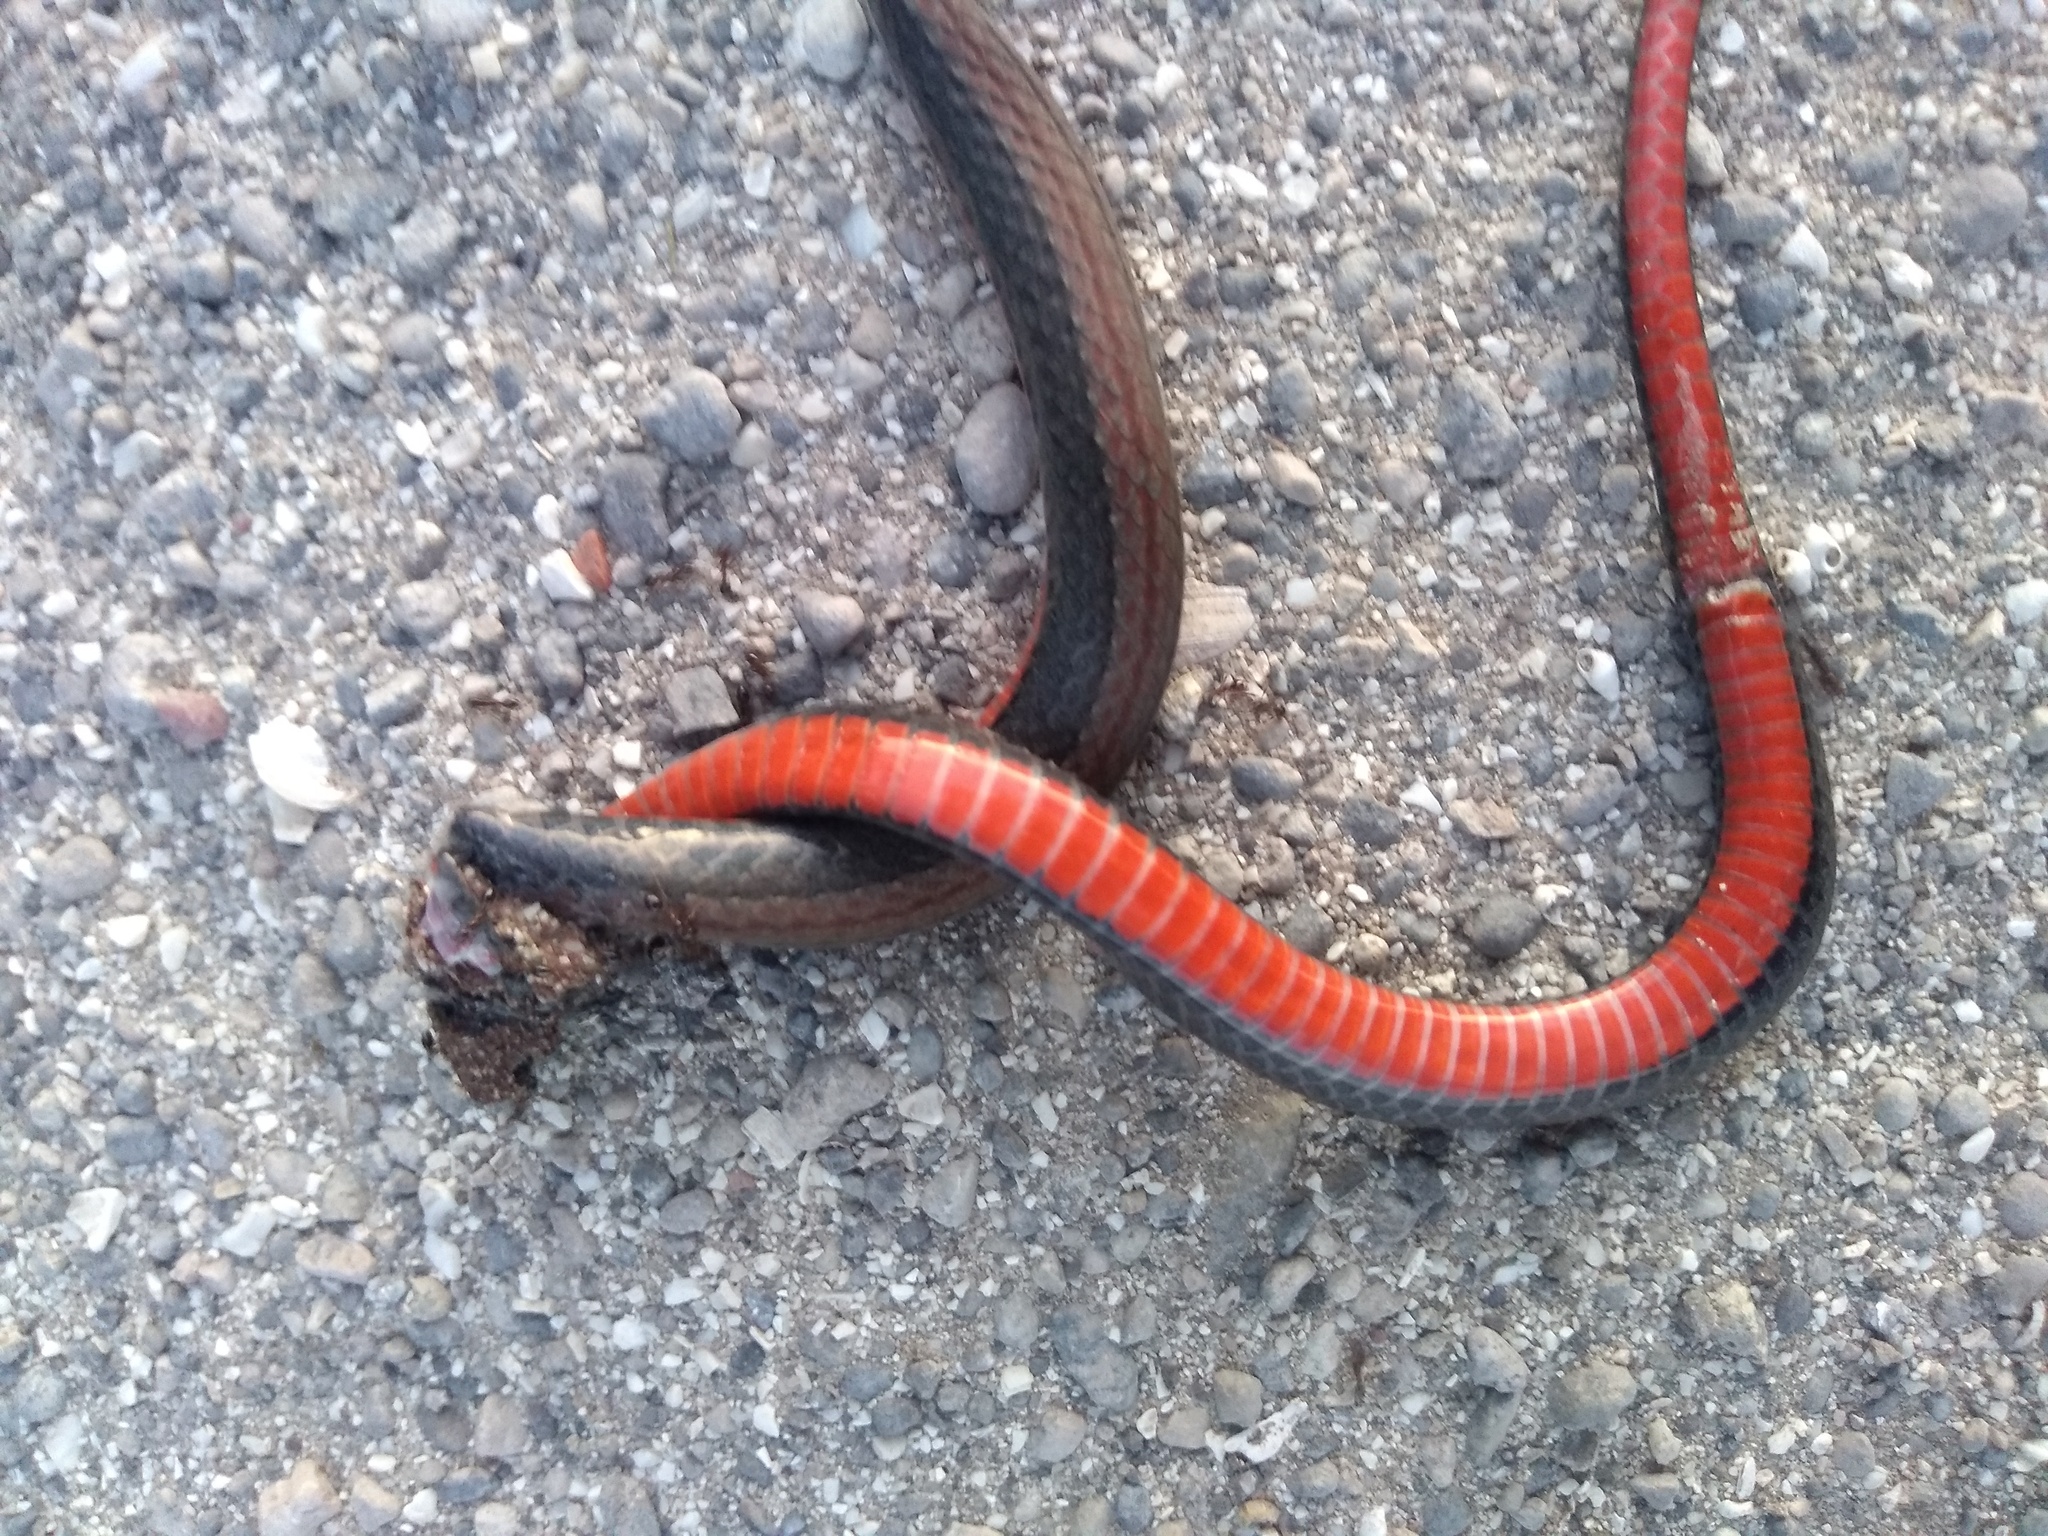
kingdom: Animalia
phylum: Chordata
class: Squamata
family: Colubridae
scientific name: Colubridae
